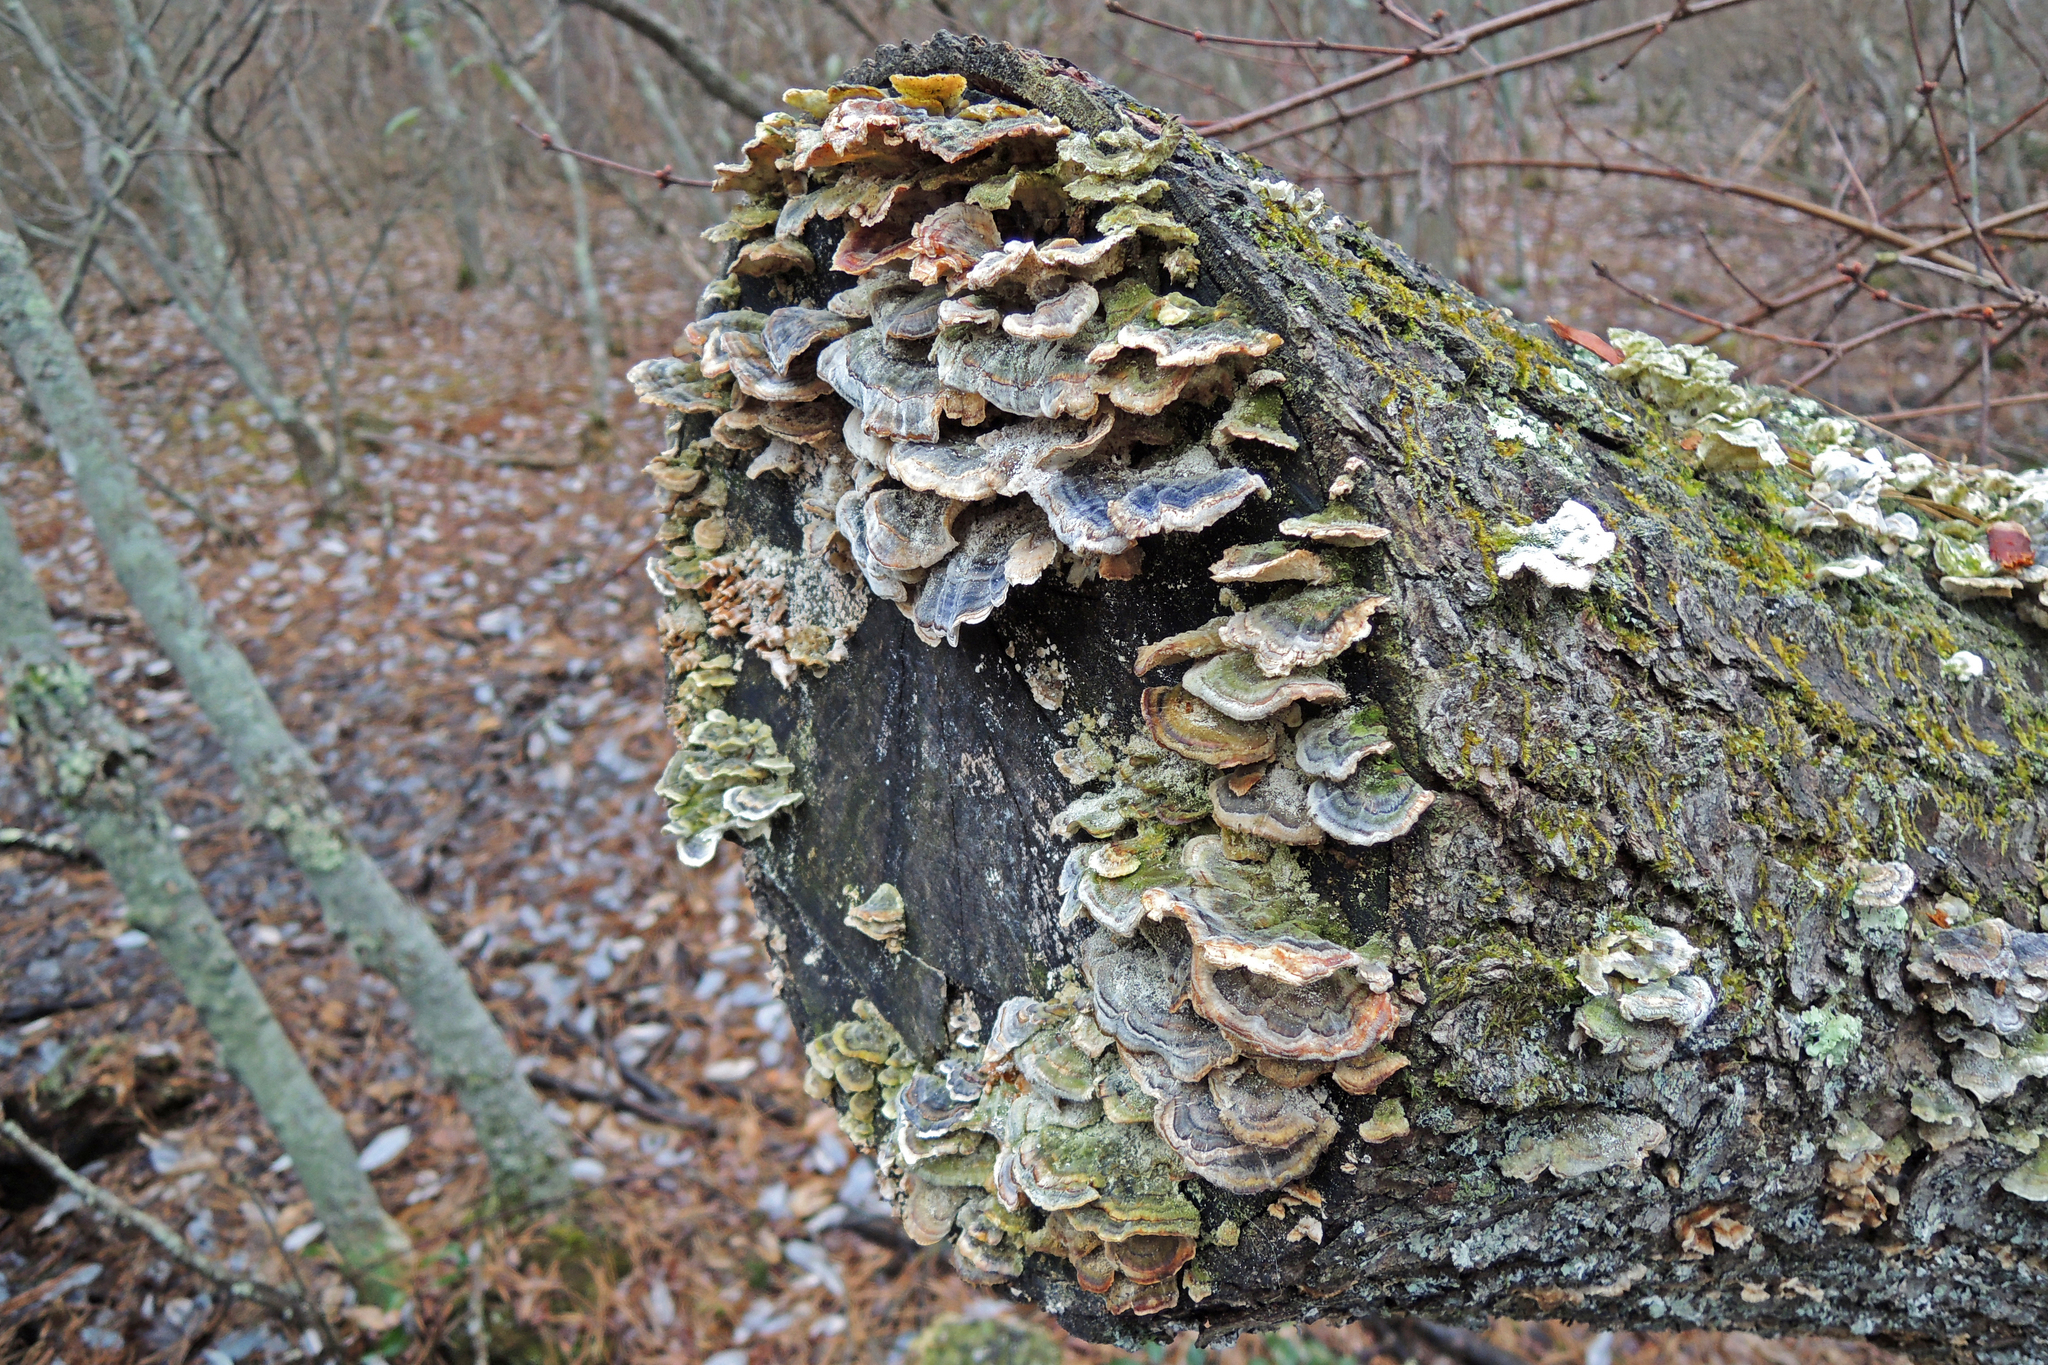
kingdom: Fungi
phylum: Basidiomycota
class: Agaricomycetes
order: Polyporales
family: Polyporaceae
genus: Trametes
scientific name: Trametes versicolor
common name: Turkeytail
